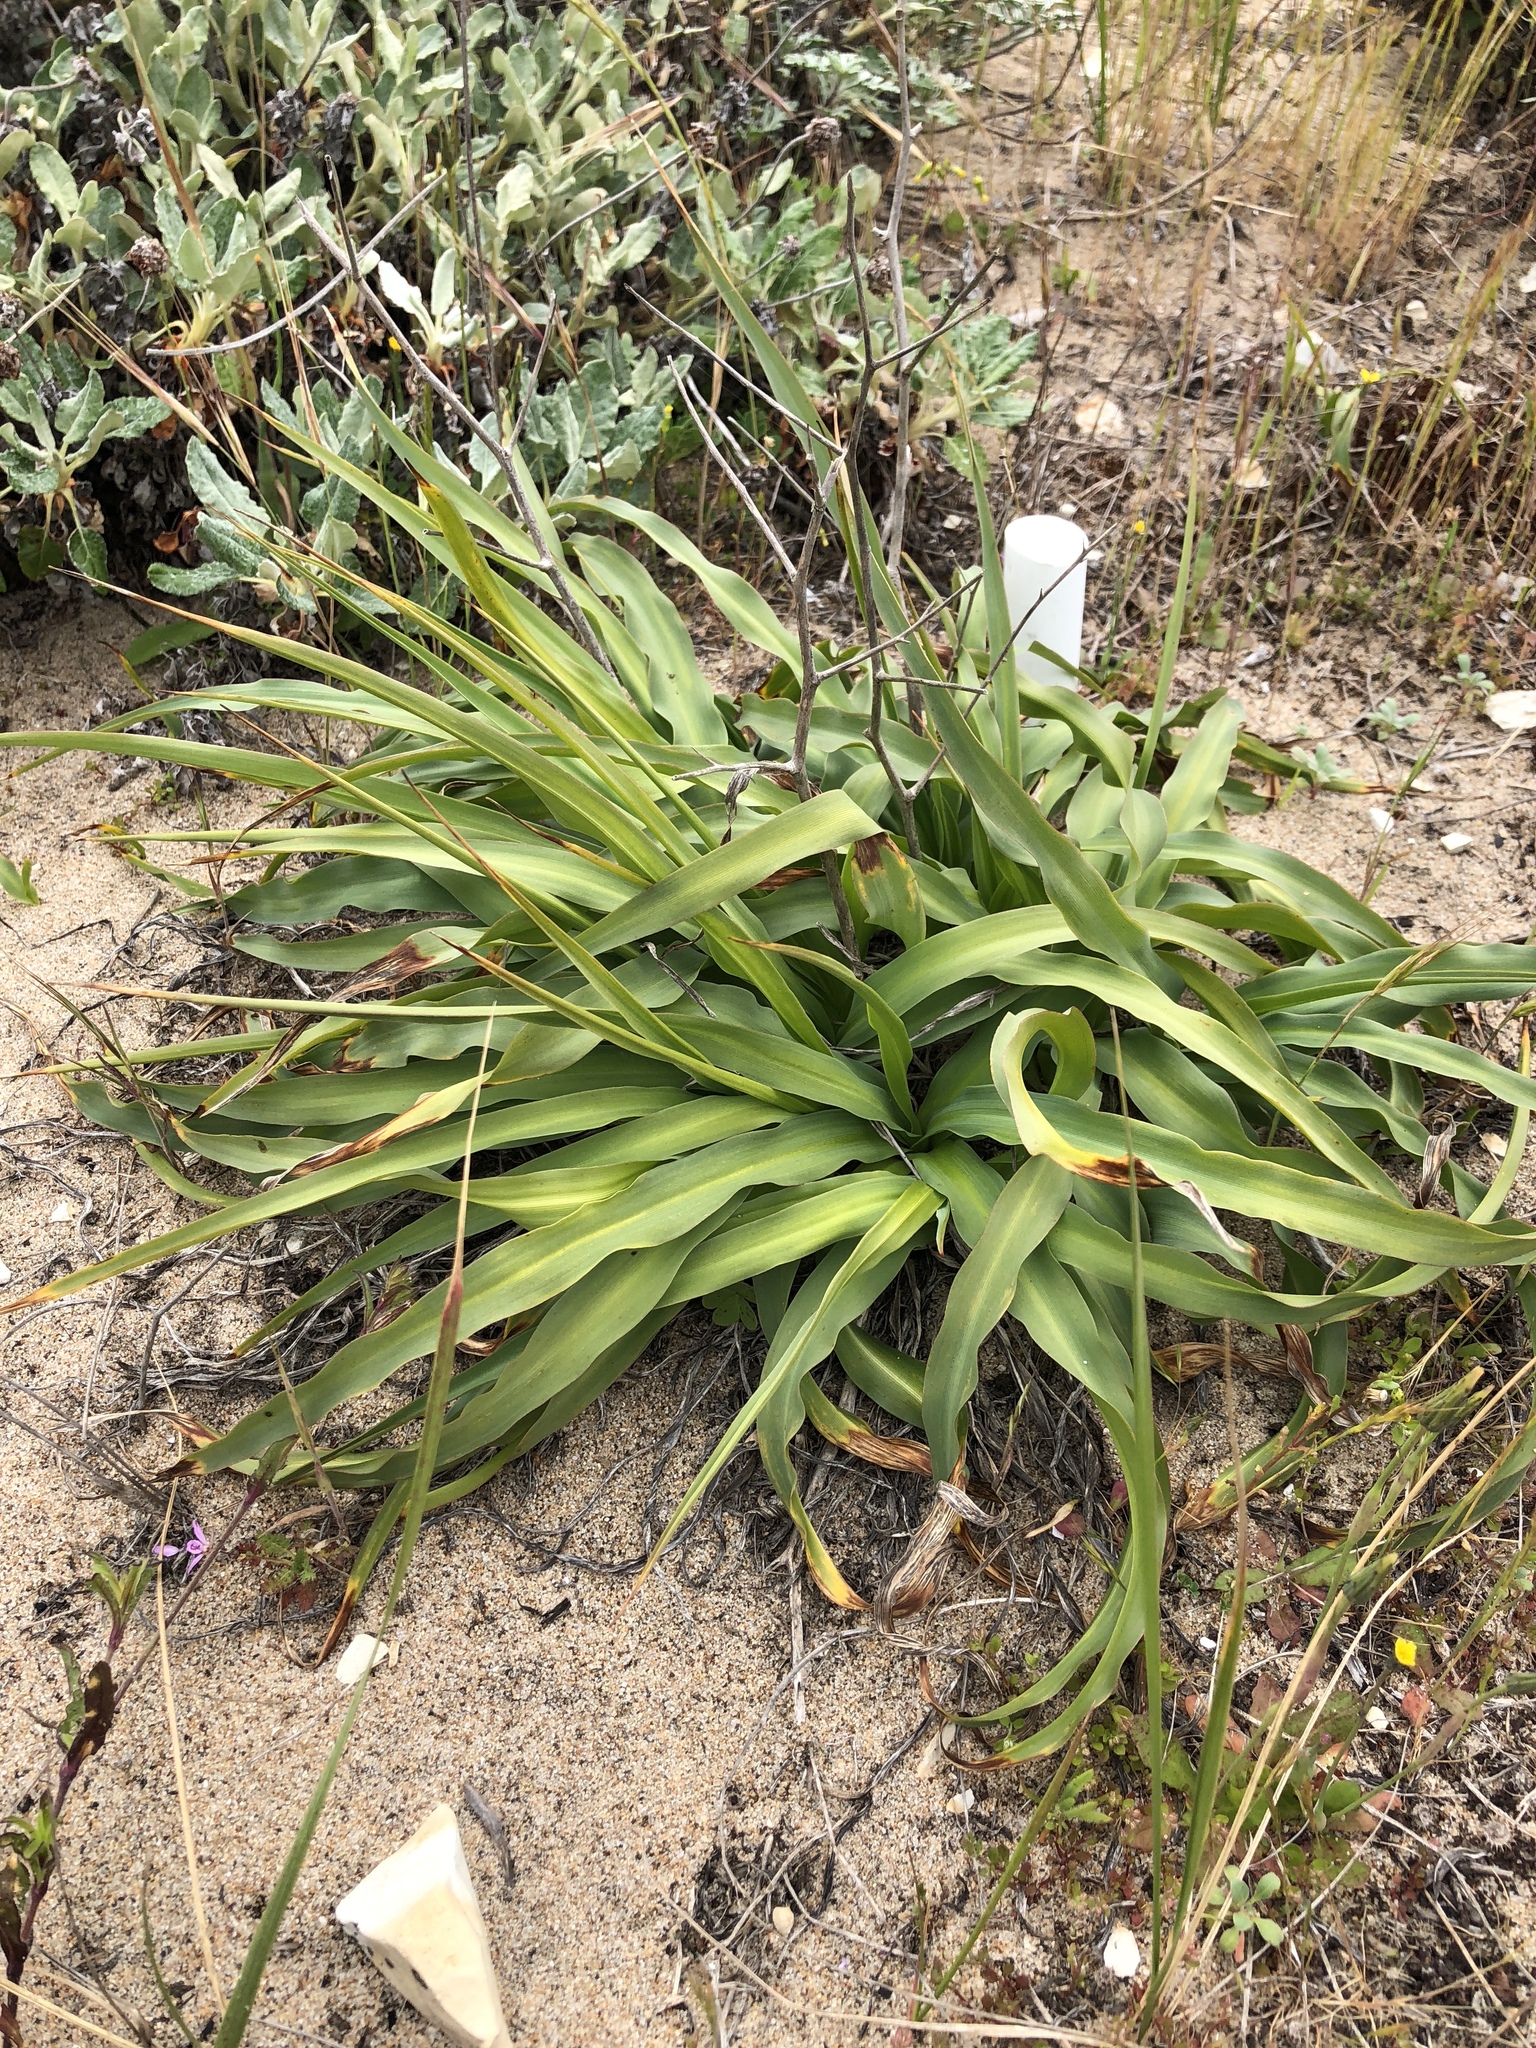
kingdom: Plantae
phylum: Tracheophyta
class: Liliopsida
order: Asparagales
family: Asparagaceae
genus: Chlorogalum
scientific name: Chlorogalum pomeridianum
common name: Amole
